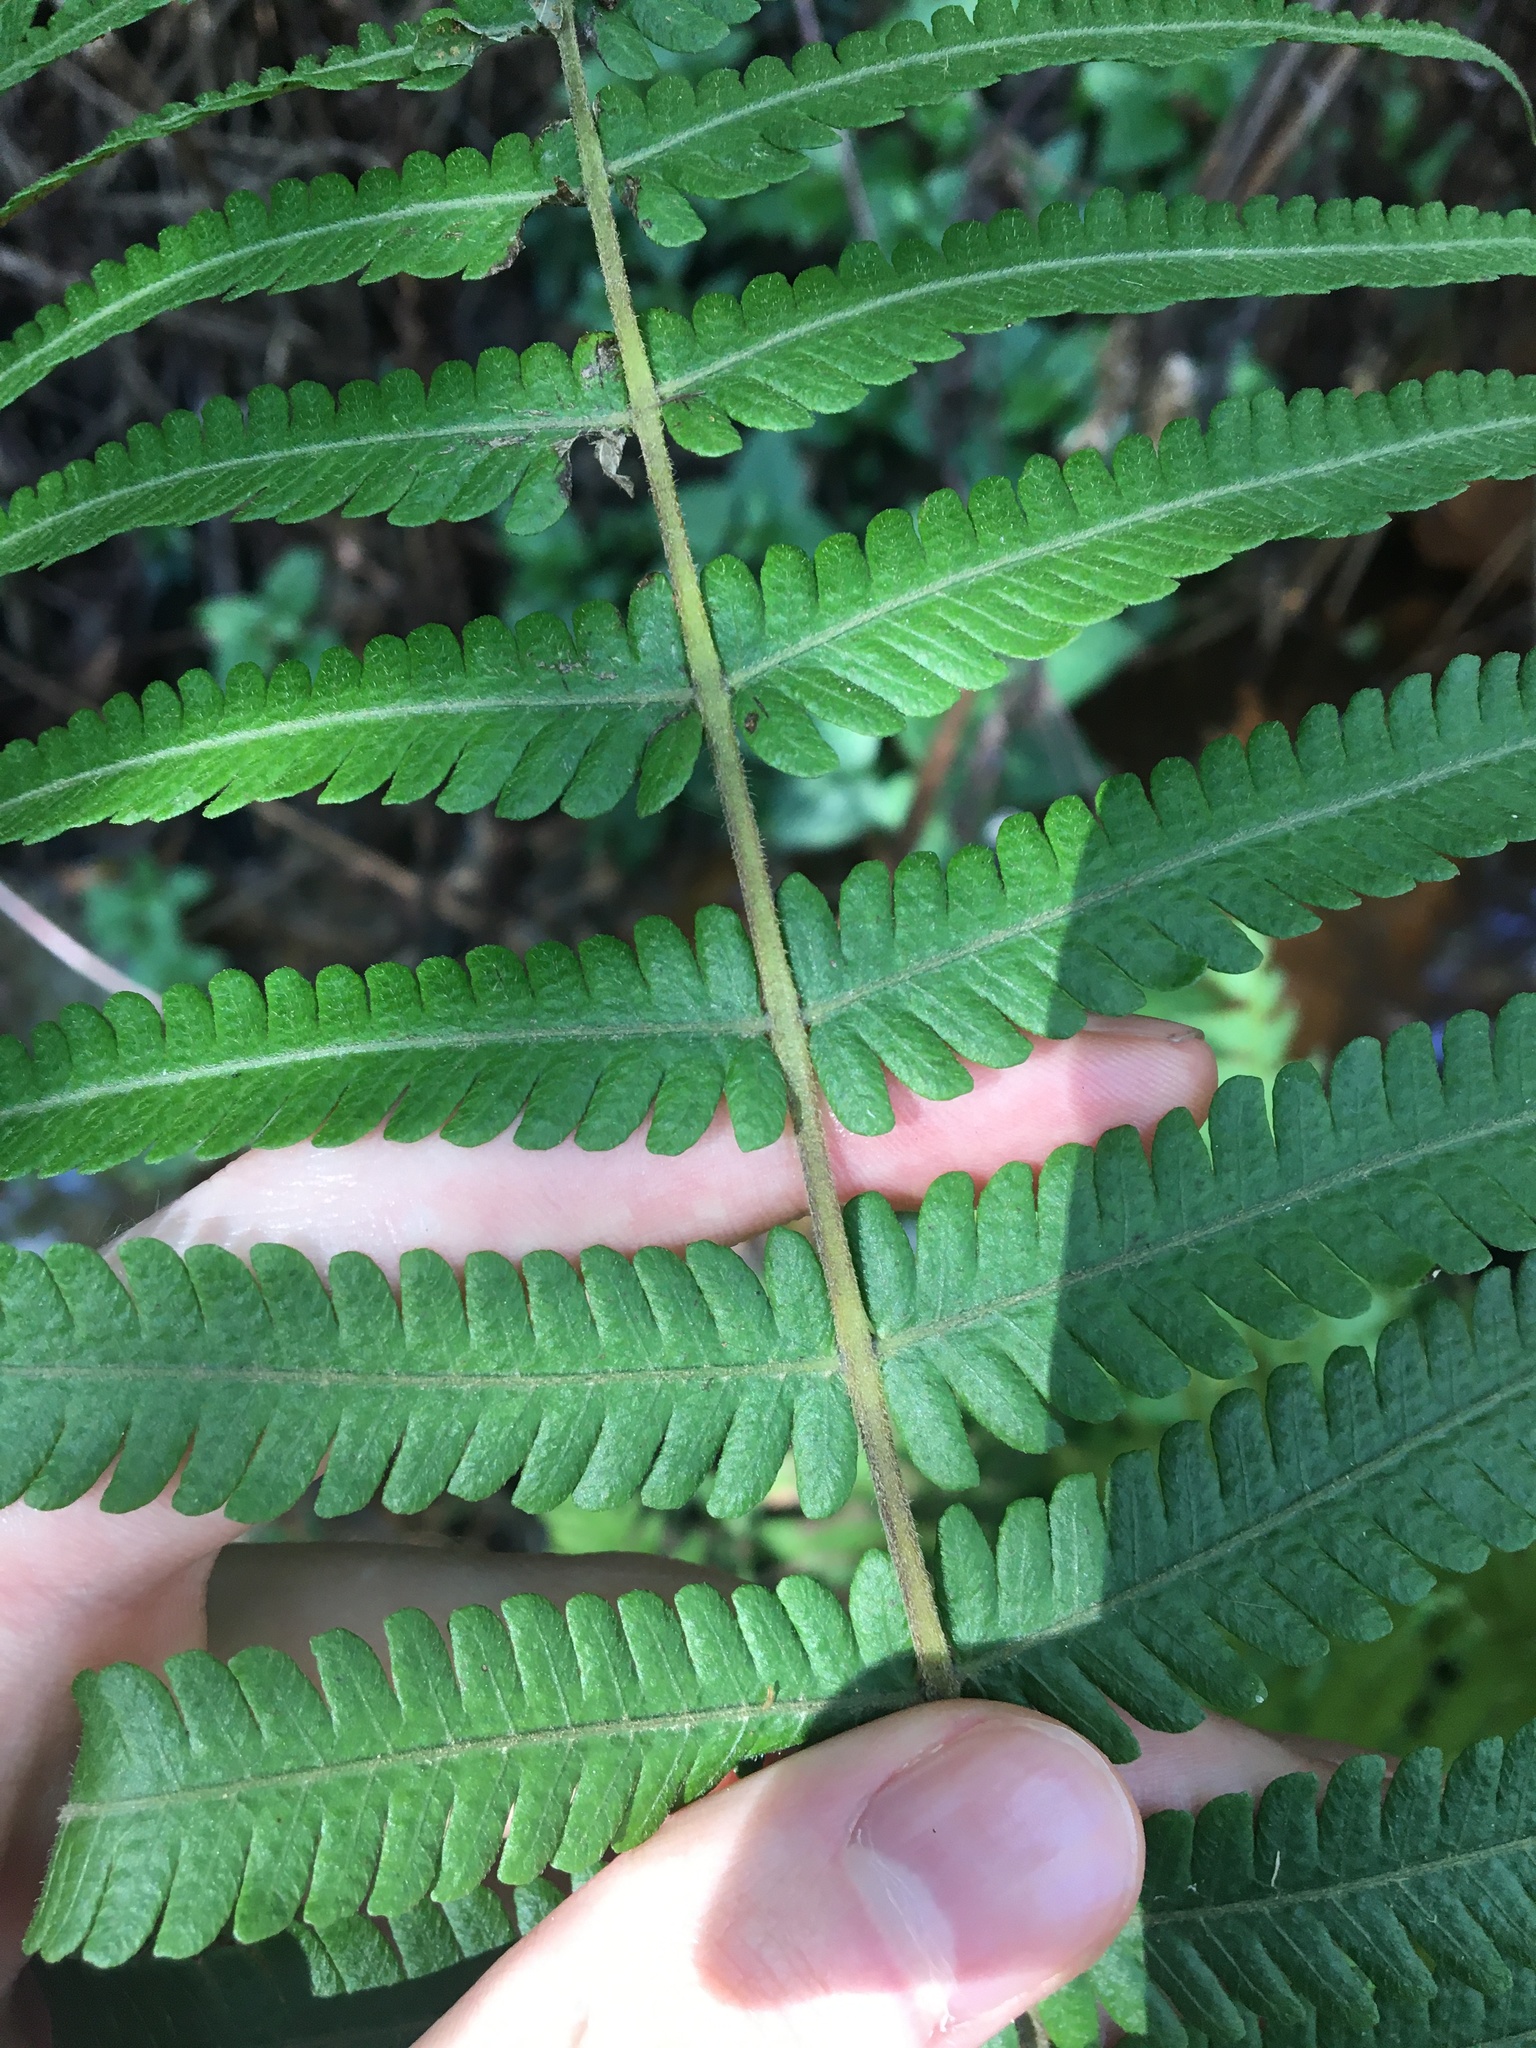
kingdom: Plantae
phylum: Tracheophyta
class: Polypodiopsida
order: Polypodiales
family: Thelypteridaceae
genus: Christella
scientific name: Christella dentata
